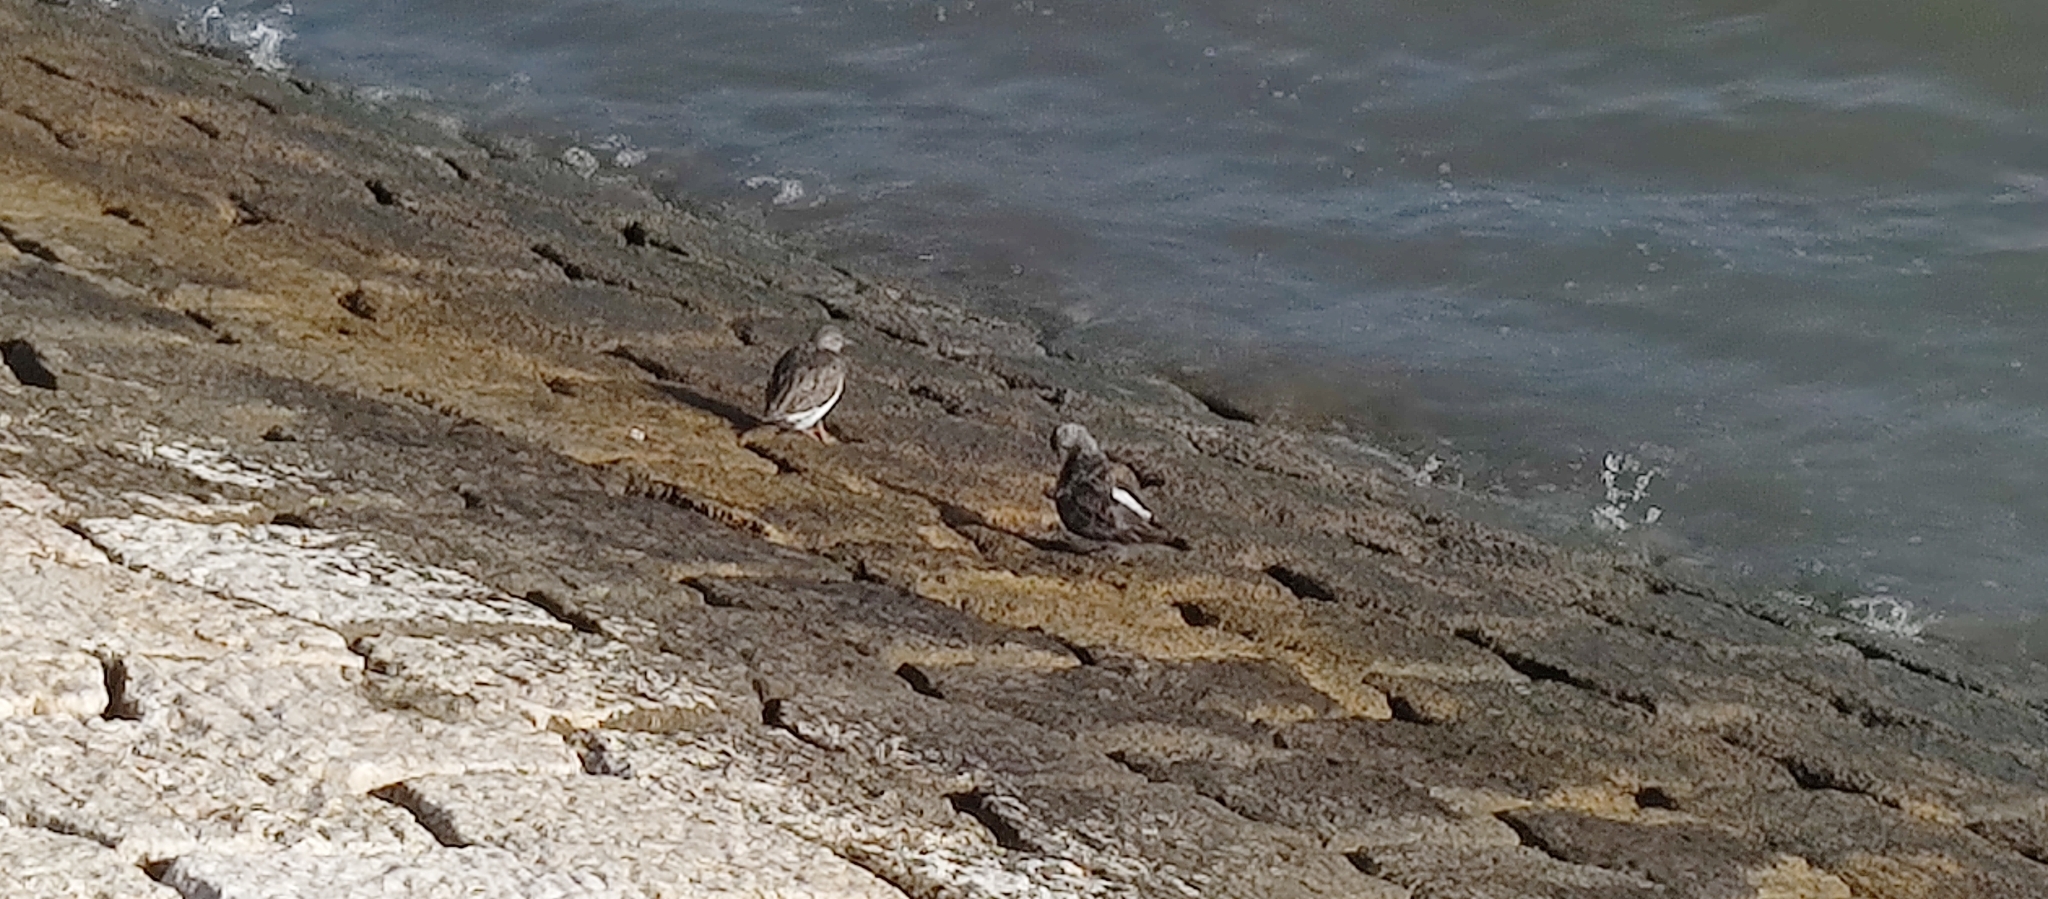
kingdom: Animalia
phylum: Chordata
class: Aves
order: Charadriiformes
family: Scolopacidae
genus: Arenaria
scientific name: Arenaria interpres
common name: Ruddy turnstone
